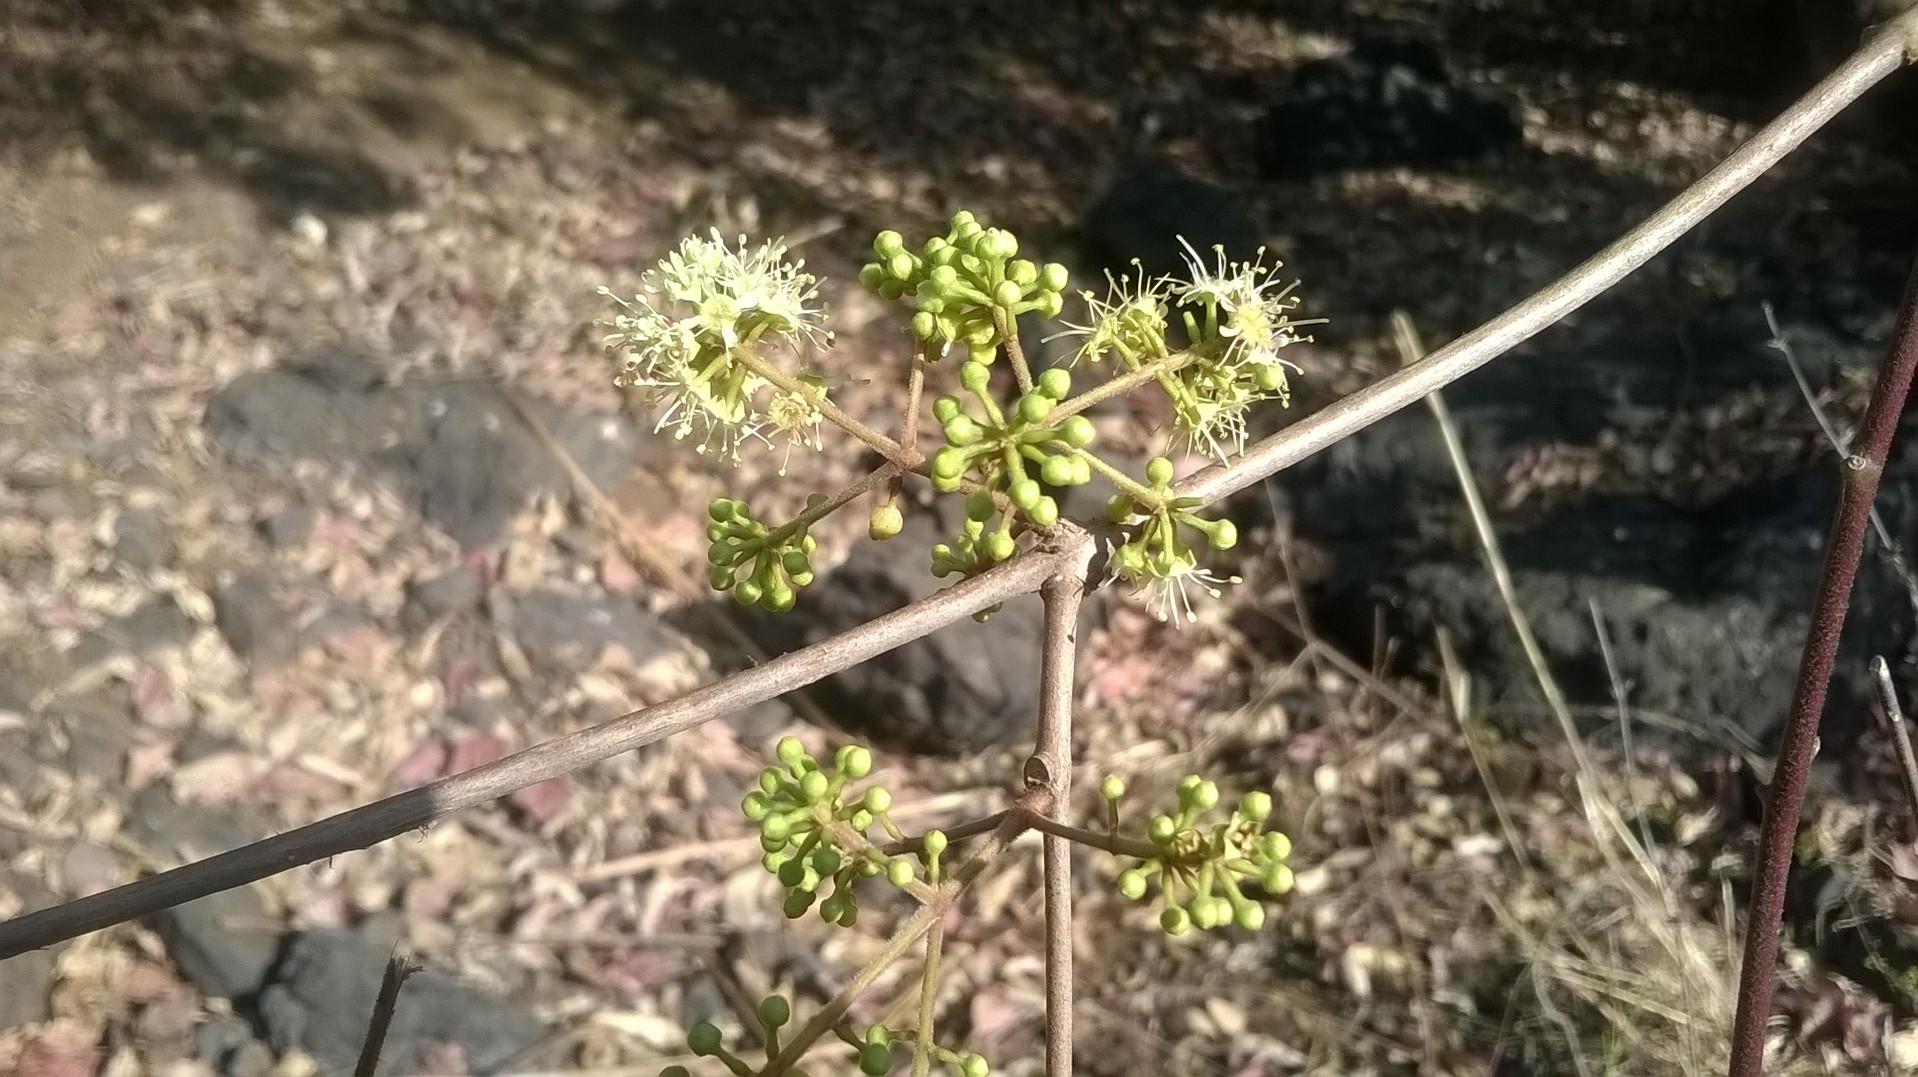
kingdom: Plantae
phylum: Tracheophyta
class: Magnoliopsida
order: Myrtales
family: Combretaceae
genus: Combretum
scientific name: Combretum albidum
